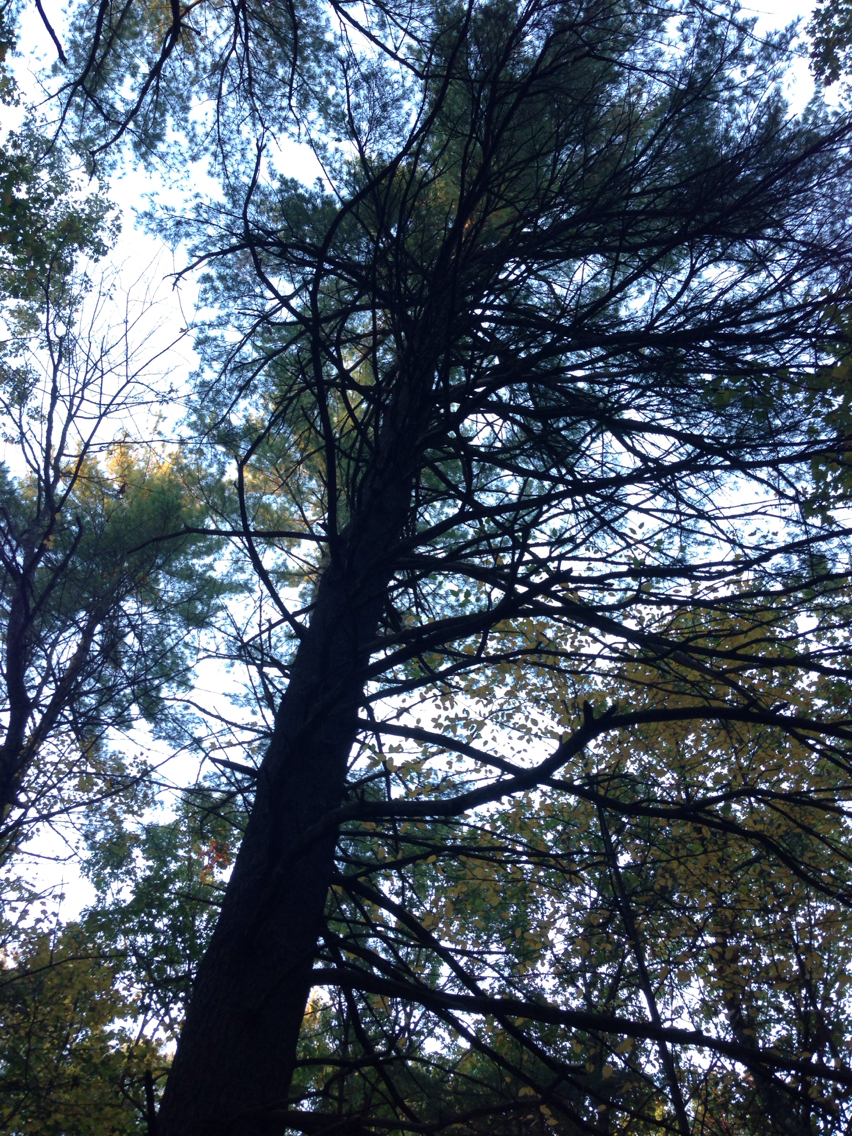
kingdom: Plantae
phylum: Tracheophyta
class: Pinopsida
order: Pinales
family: Pinaceae
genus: Pinus
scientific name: Pinus strobus
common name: Weymouth pine
